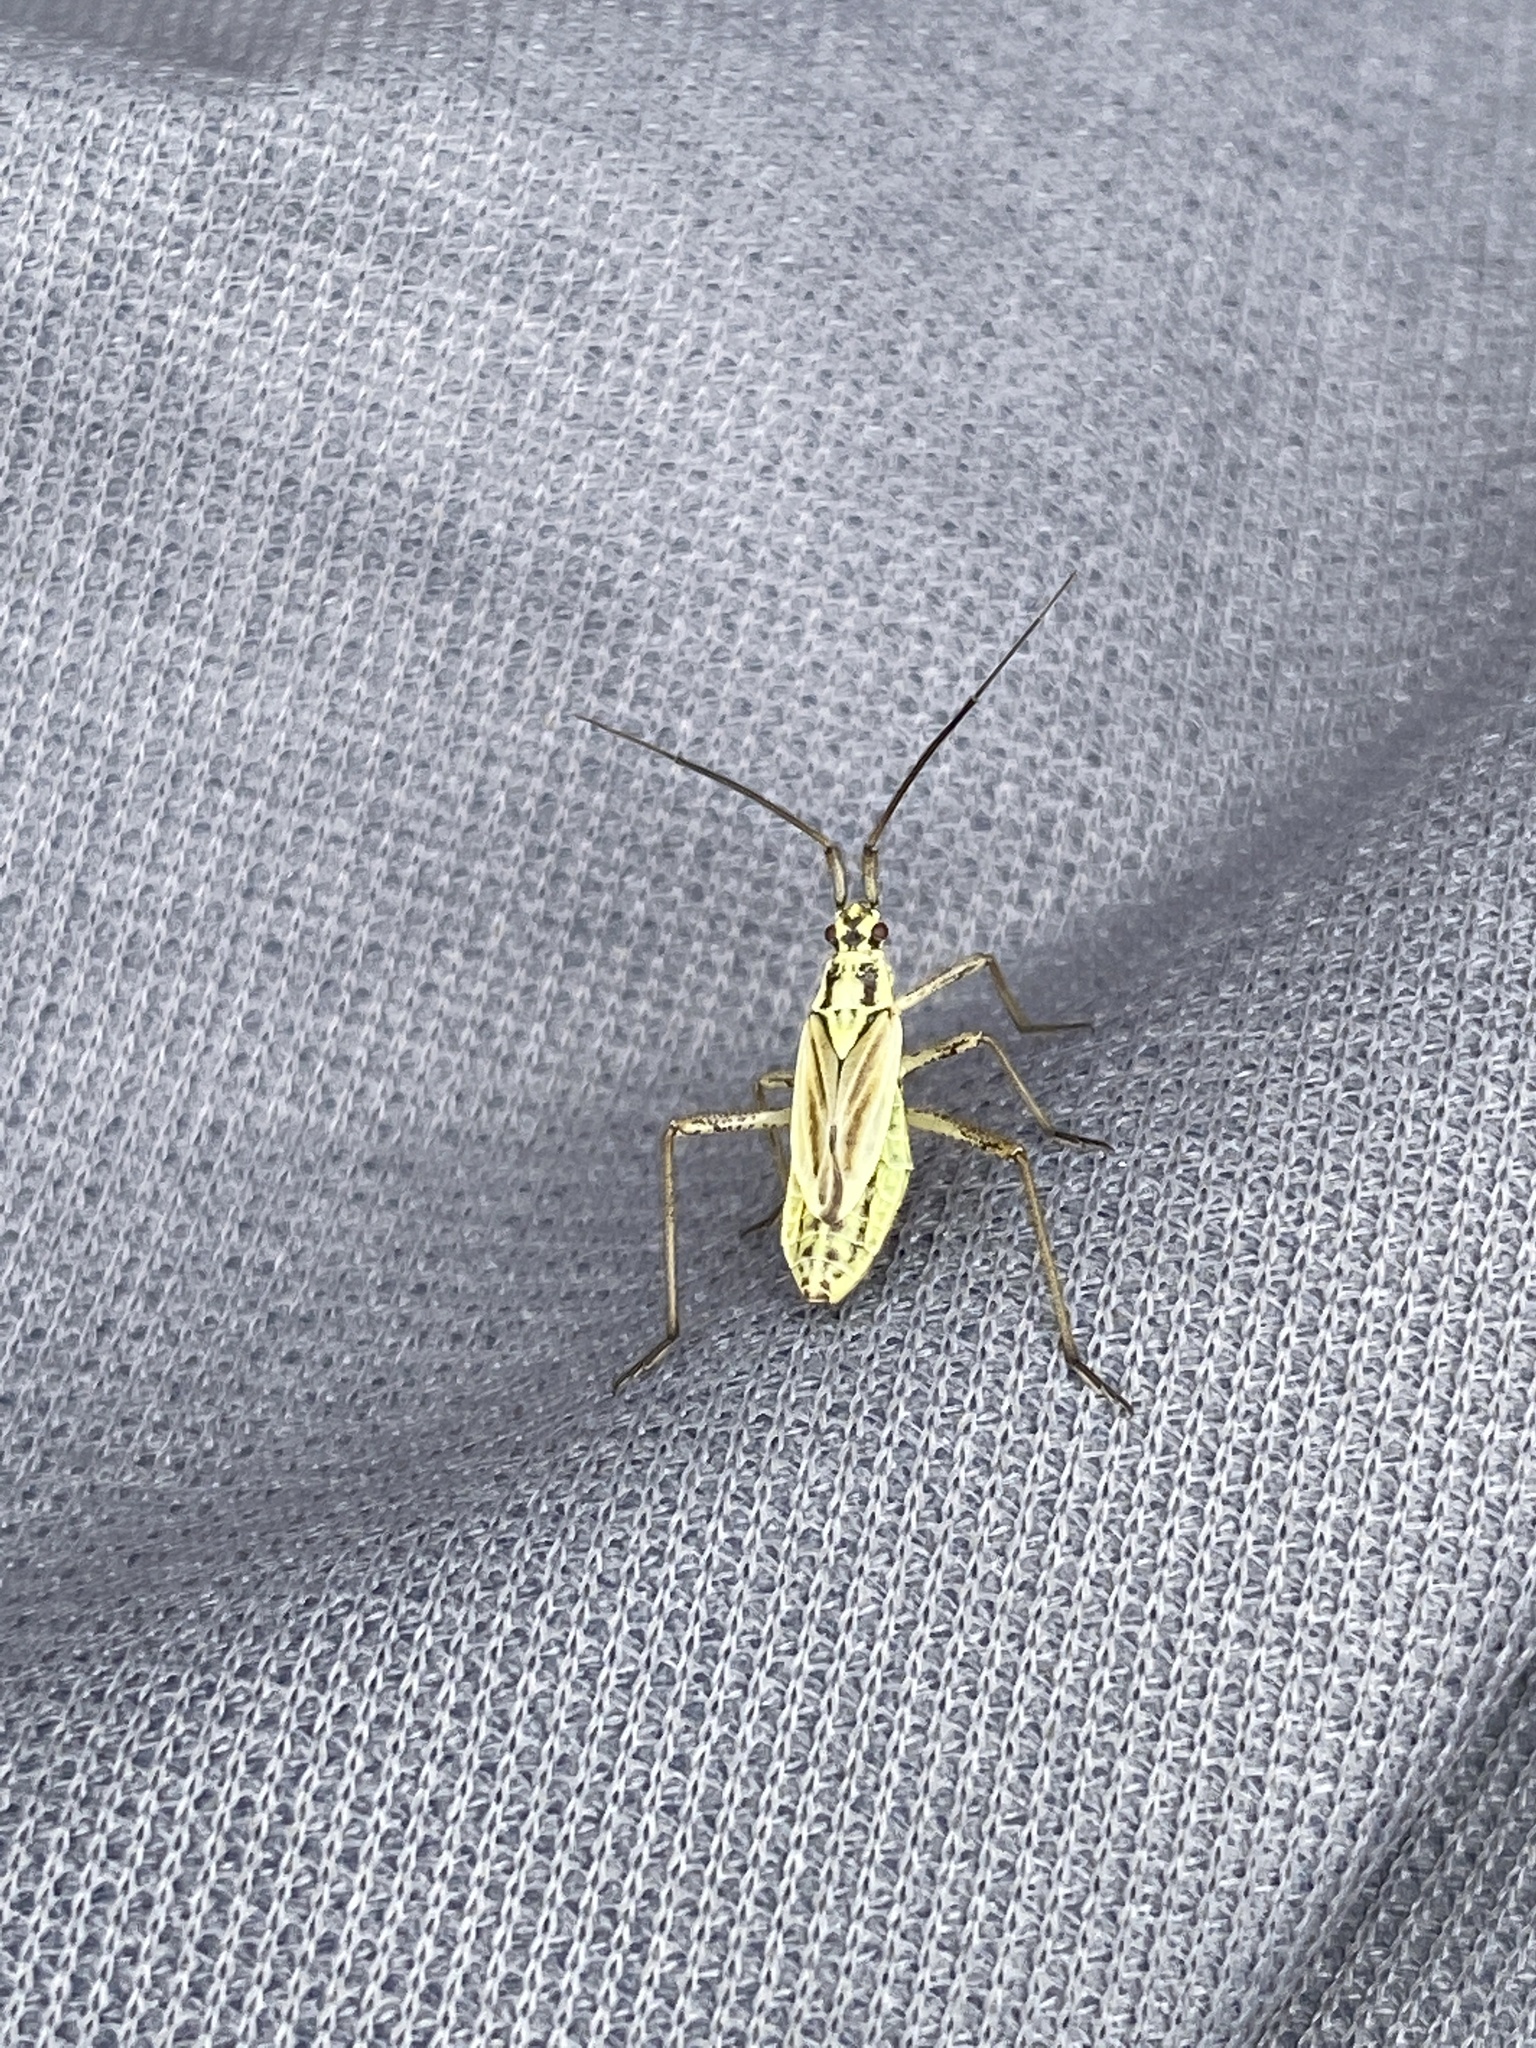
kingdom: Animalia
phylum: Arthropoda
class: Insecta
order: Hemiptera
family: Miridae
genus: Leptopterna
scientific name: Leptopterna dolabrata
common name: Meadow plant bug
